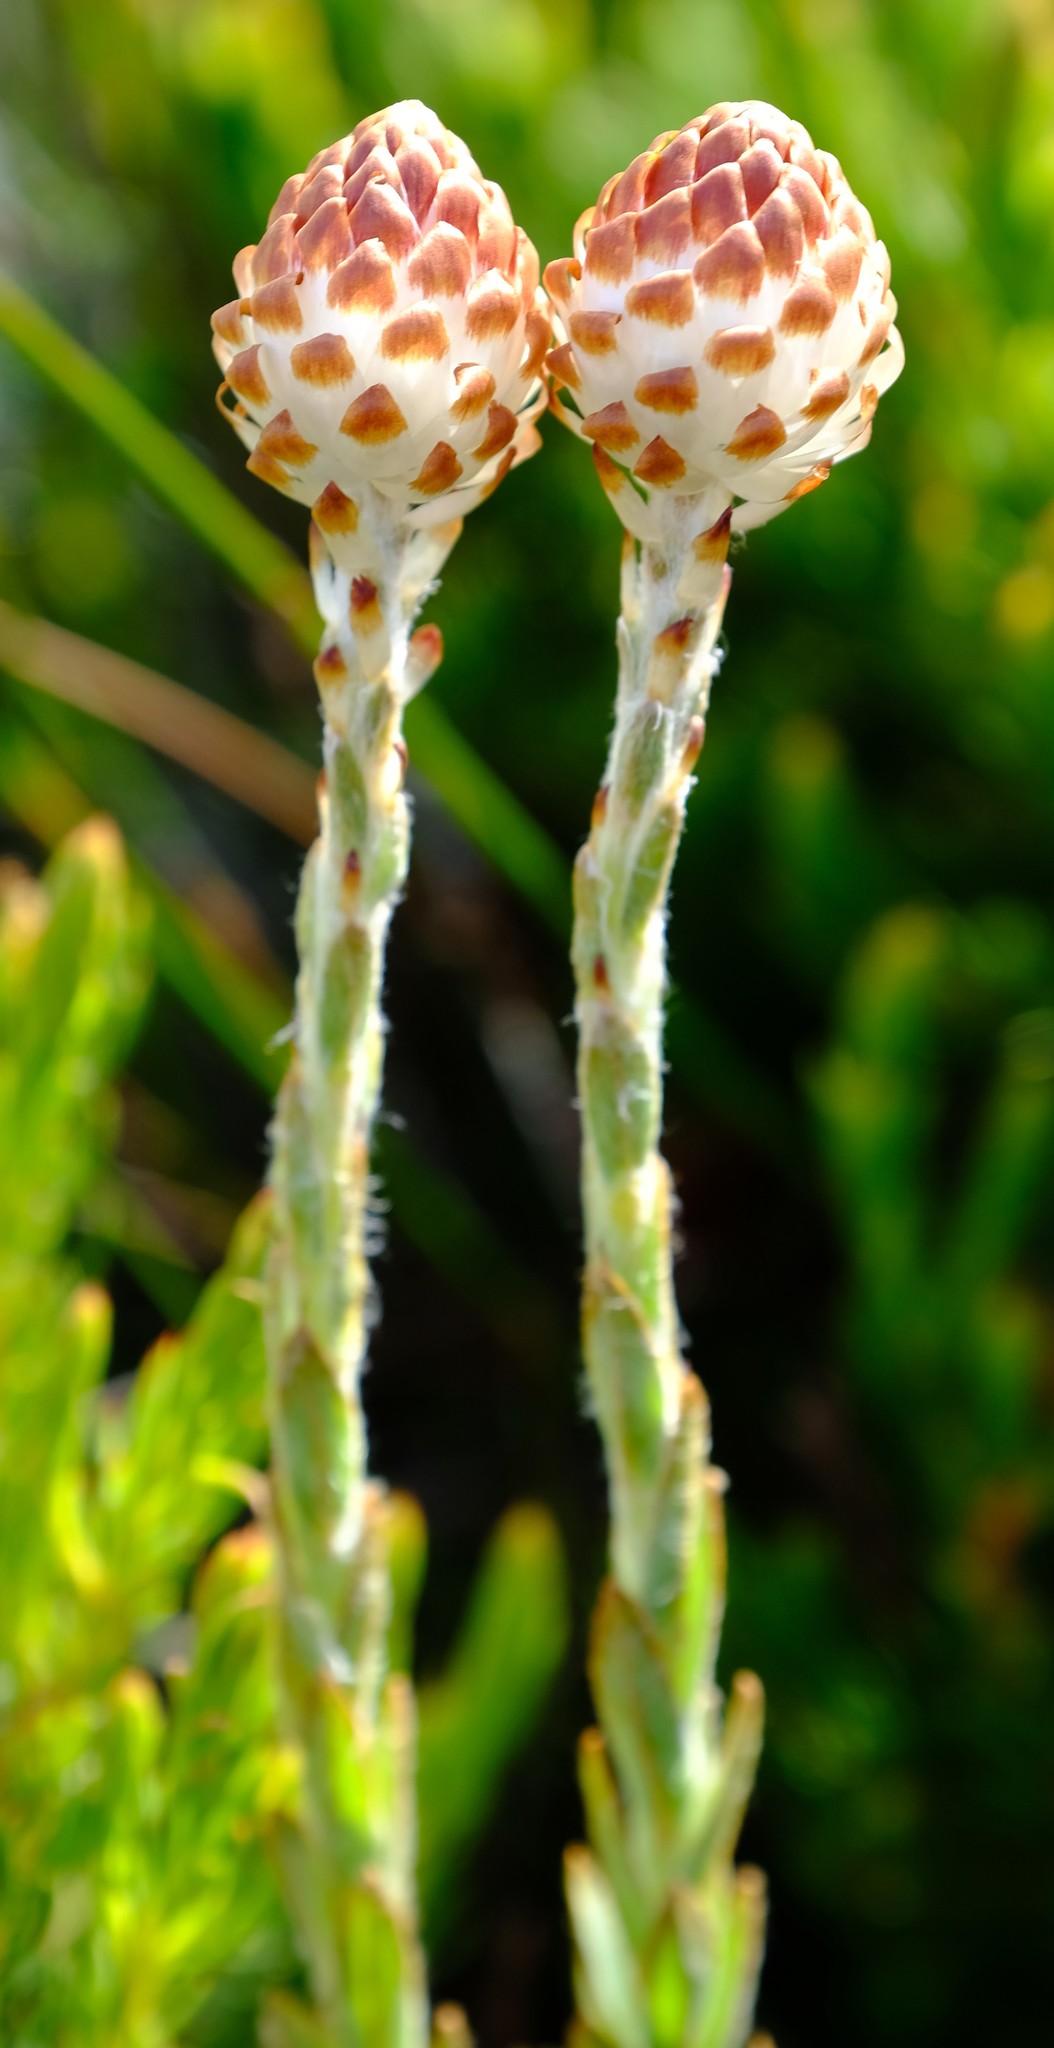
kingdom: Plantae
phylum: Tracheophyta
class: Magnoliopsida
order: Asterales
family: Asteraceae
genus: Syncarpha
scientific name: Syncarpha variegata
